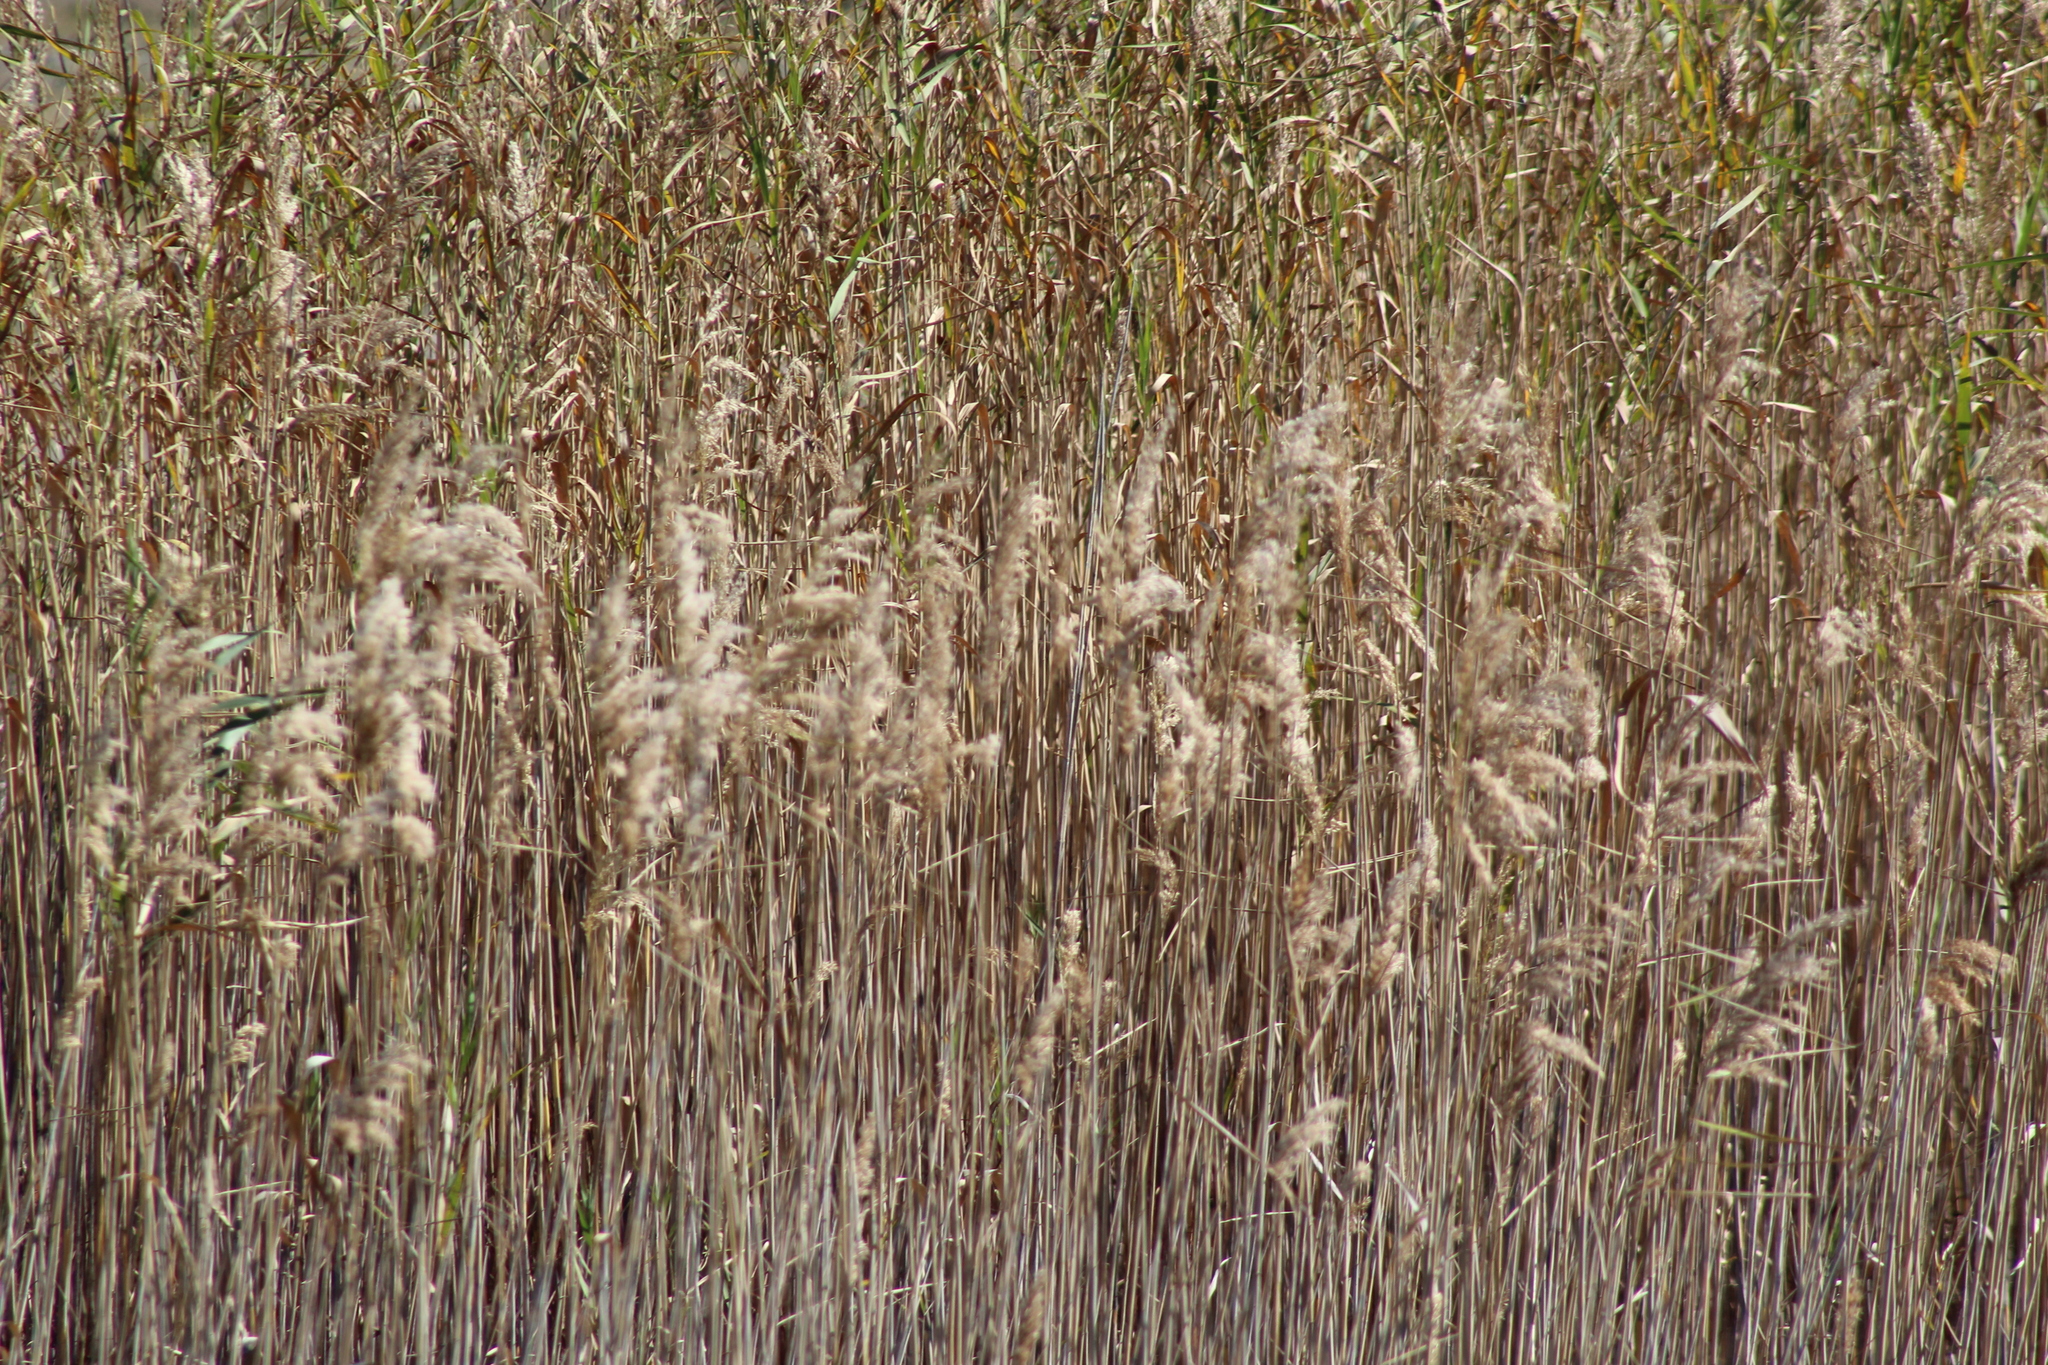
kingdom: Plantae
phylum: Tracheophyta
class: Liliopsida
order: Poales
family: Poaceae
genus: Phragmites
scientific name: Phragmites australis
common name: Common reed
